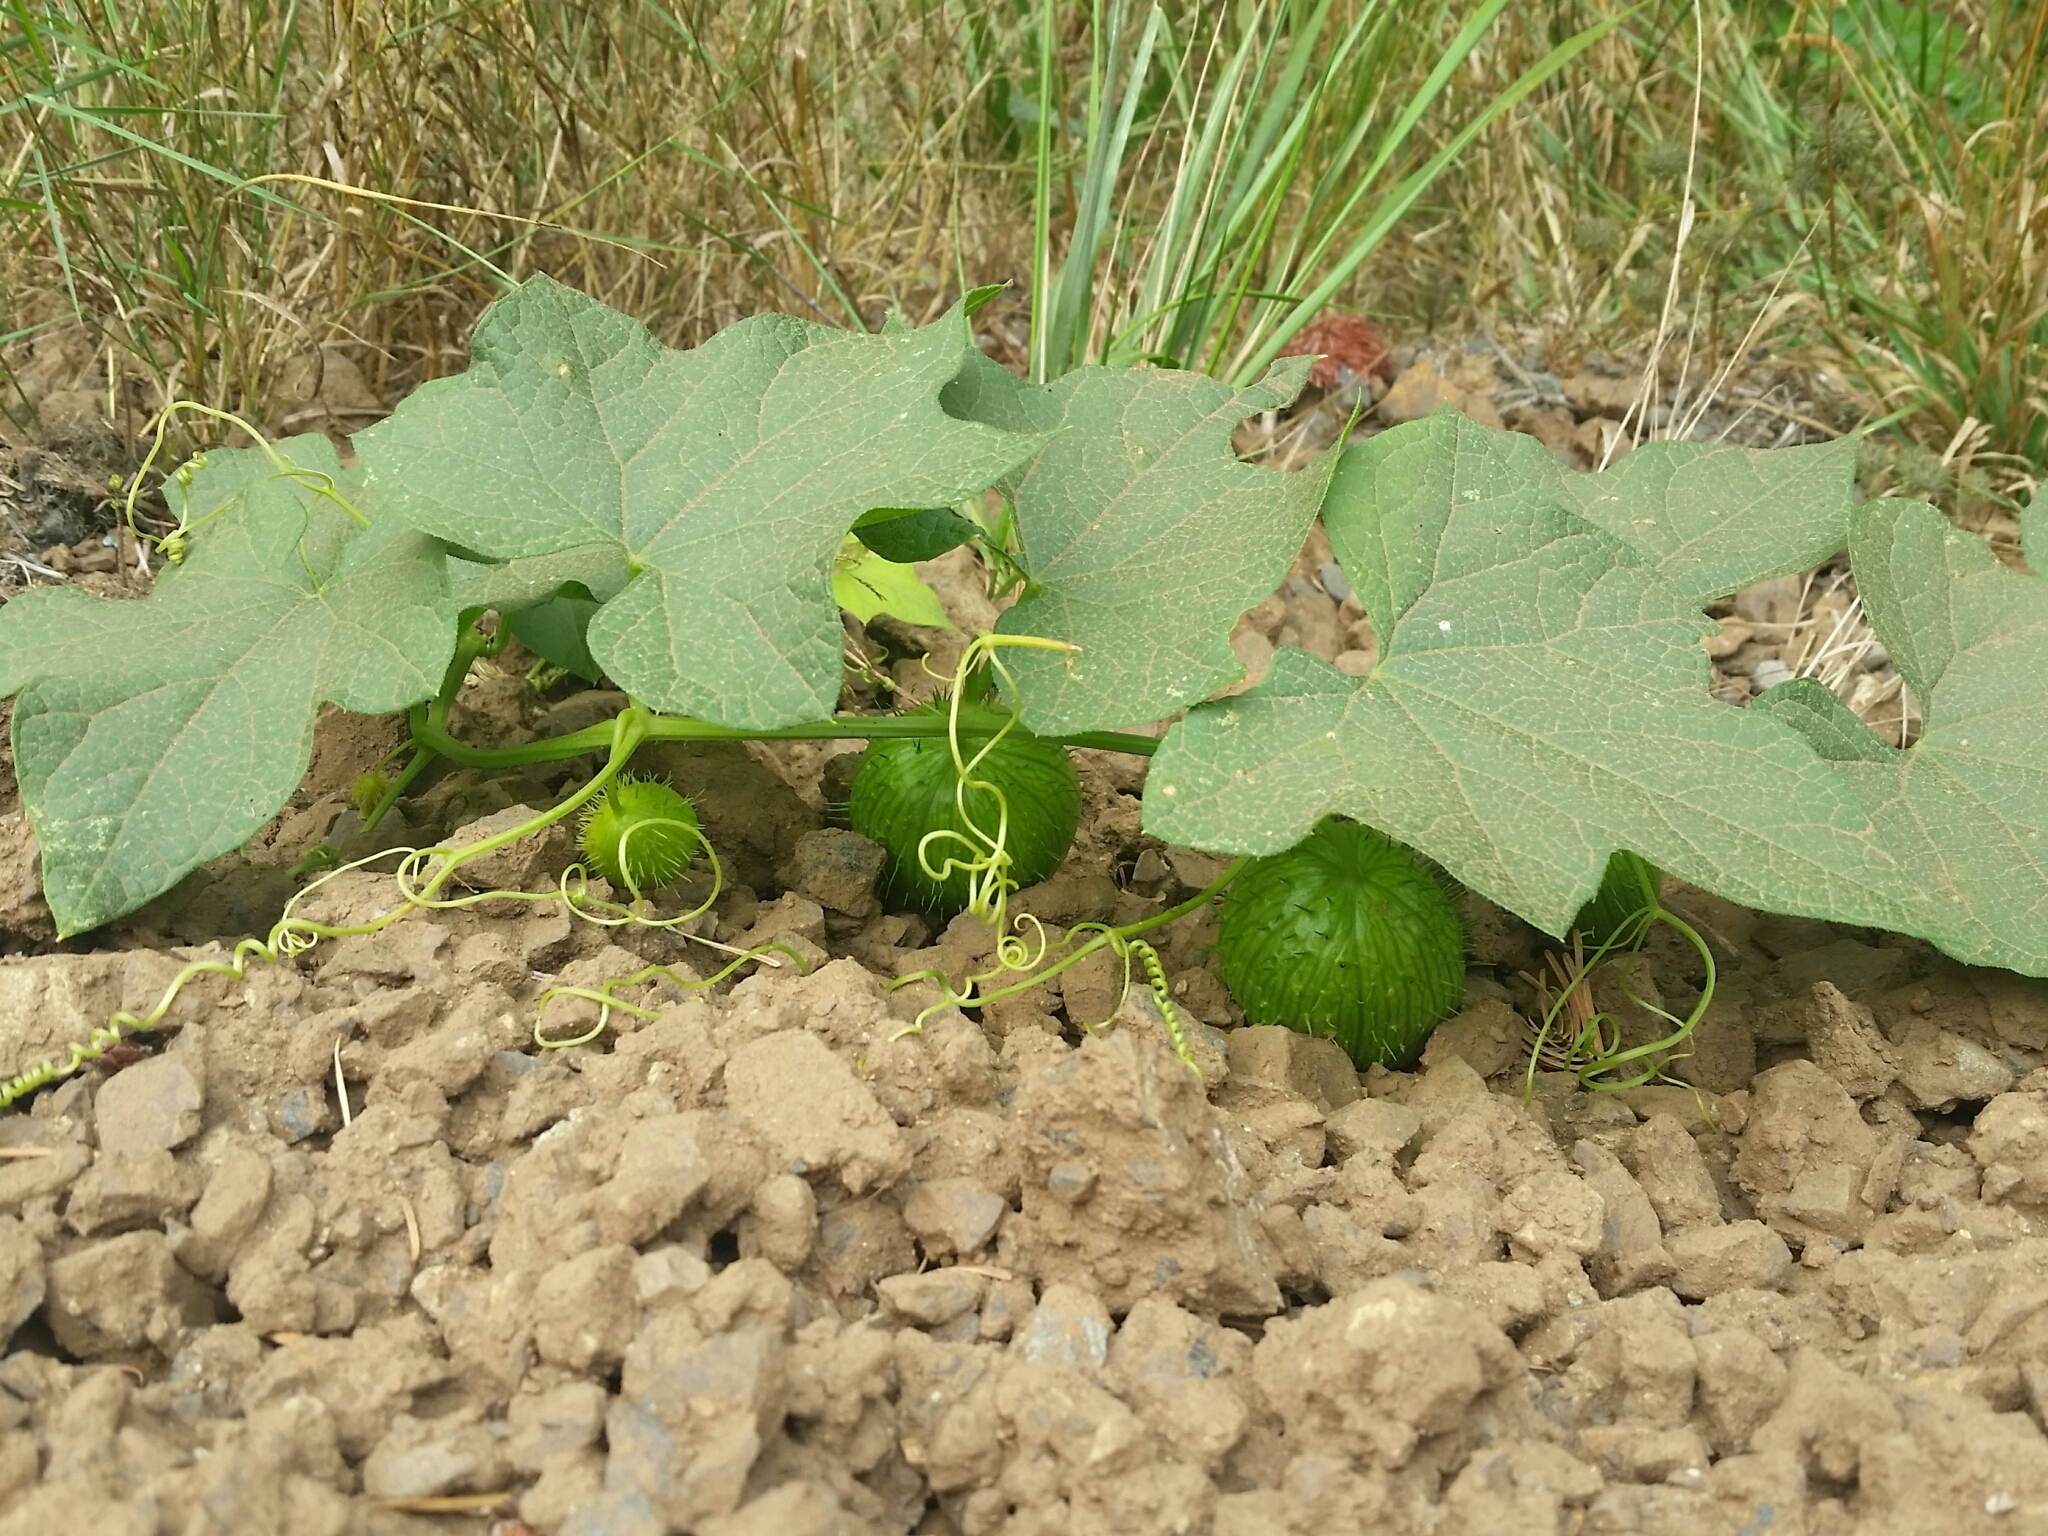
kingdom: Plantae
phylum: Tracheophyta
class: Magnoliopsida
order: Cucurbitales
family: Cucurbitaceae
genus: Marah
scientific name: Marah oregana
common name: Coastal manroot
